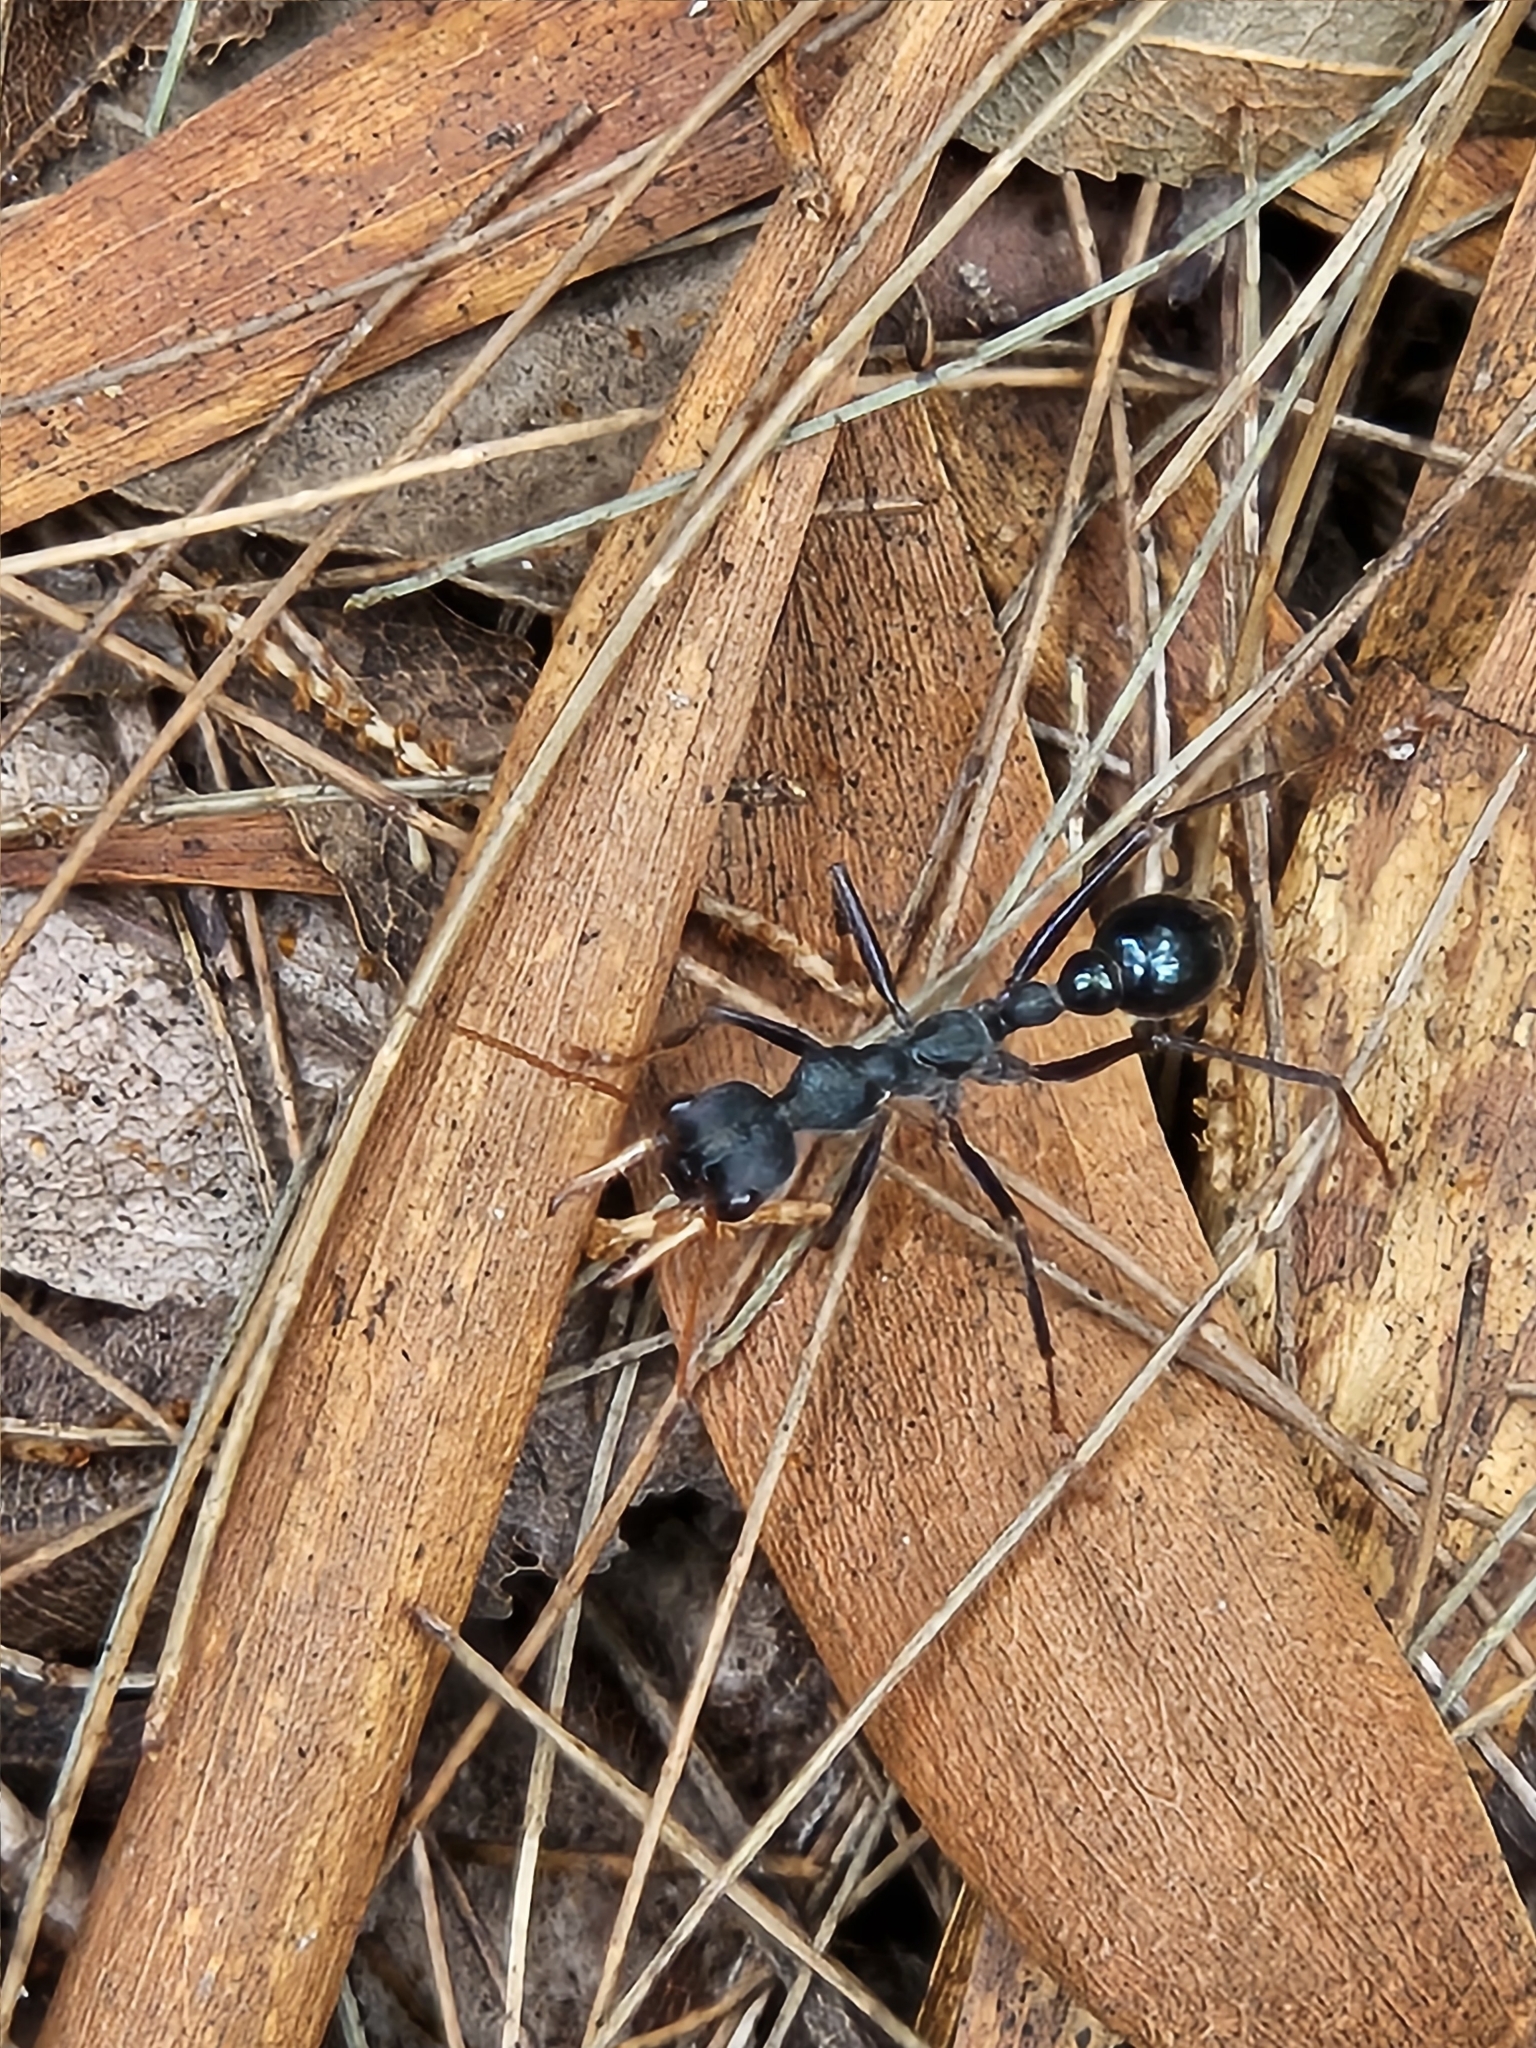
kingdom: Animalia
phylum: Arthropoda
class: Insecta
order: Hymenoptera
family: Formicidae
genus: Myrmecia
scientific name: Myrmecia tarsata
